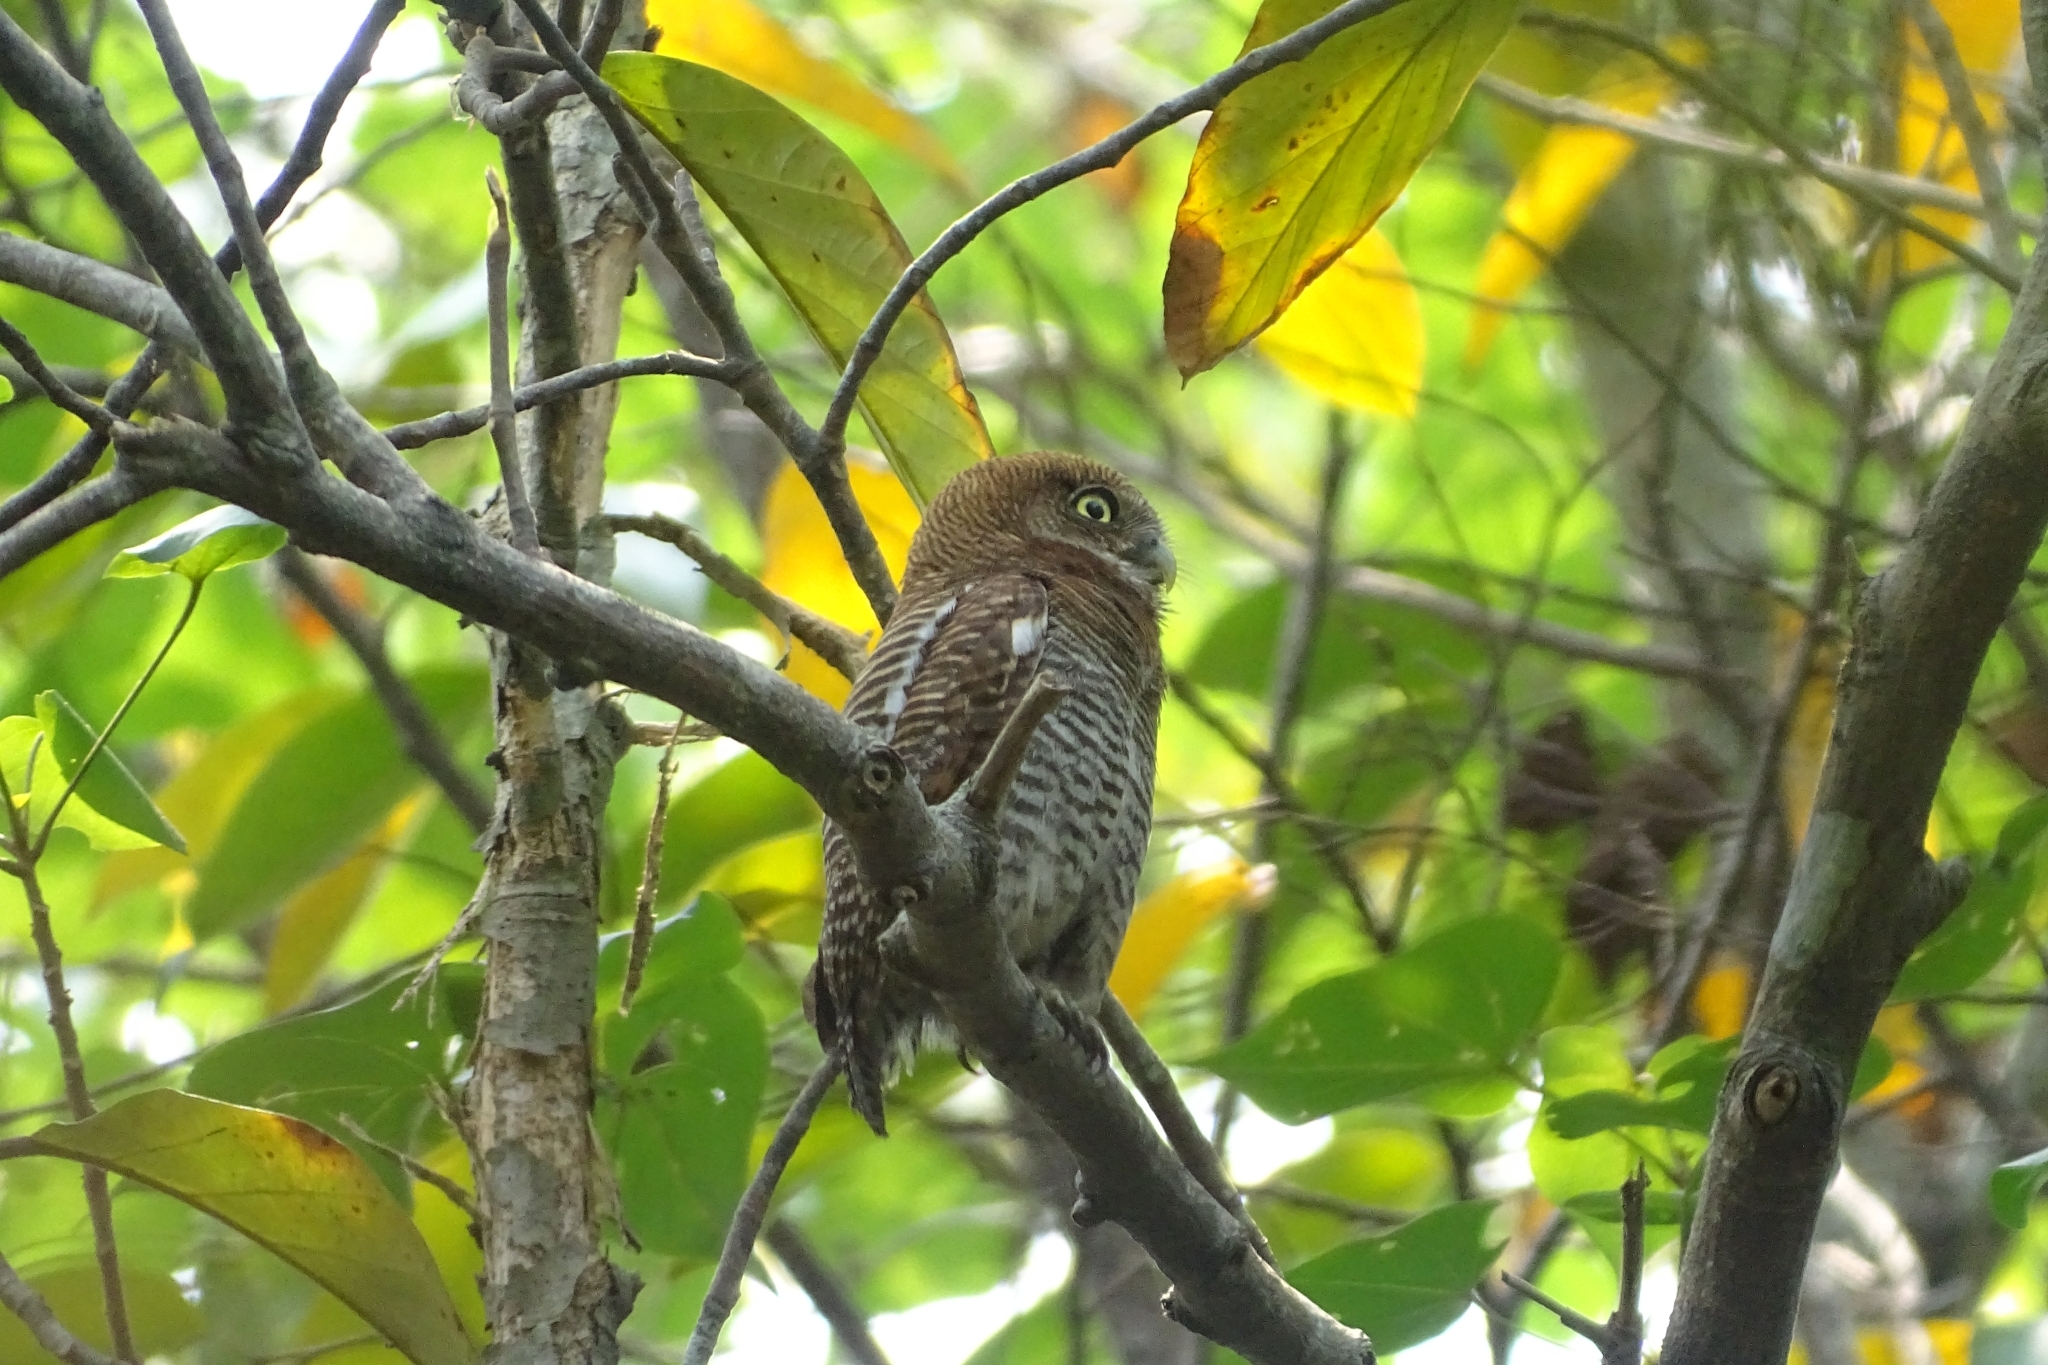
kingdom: Animalia
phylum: Chordata
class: Aves
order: Strigiformes
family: Strigidae
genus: Glaucidium
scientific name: Glaucidium radiatum
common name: Jungle owlet
